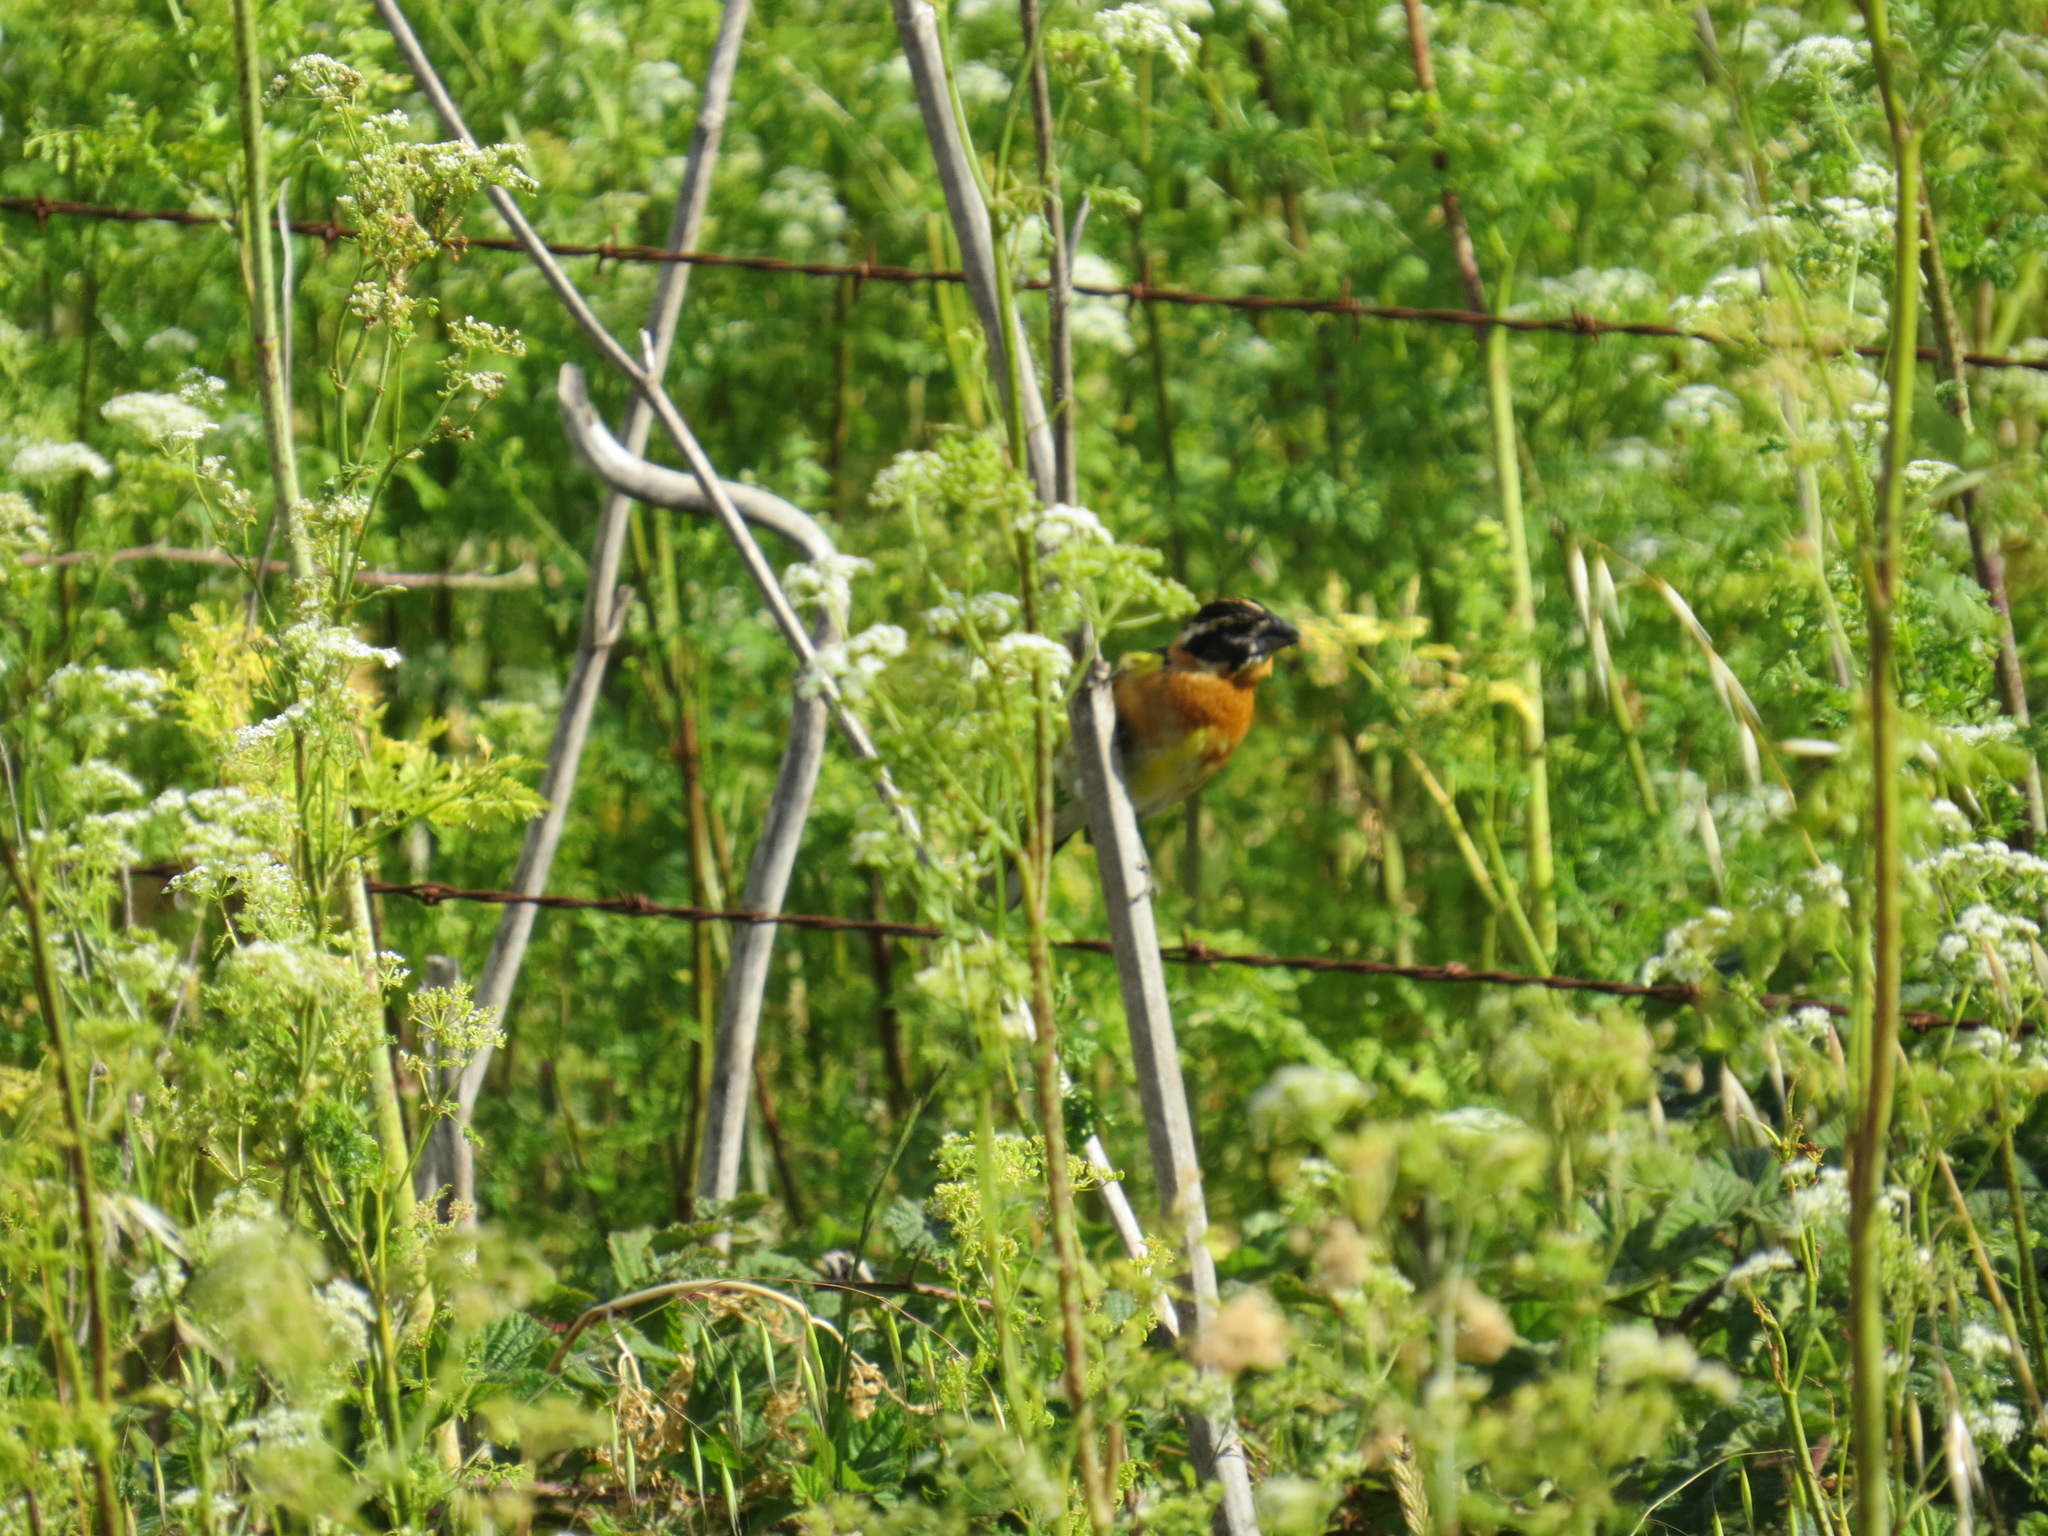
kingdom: Animalia
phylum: Chordata
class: Aves
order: Passeriformes
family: Cardinalidae
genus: Pheucticus
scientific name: Pheucticus melanocephalus
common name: Black-headed grosbeak
